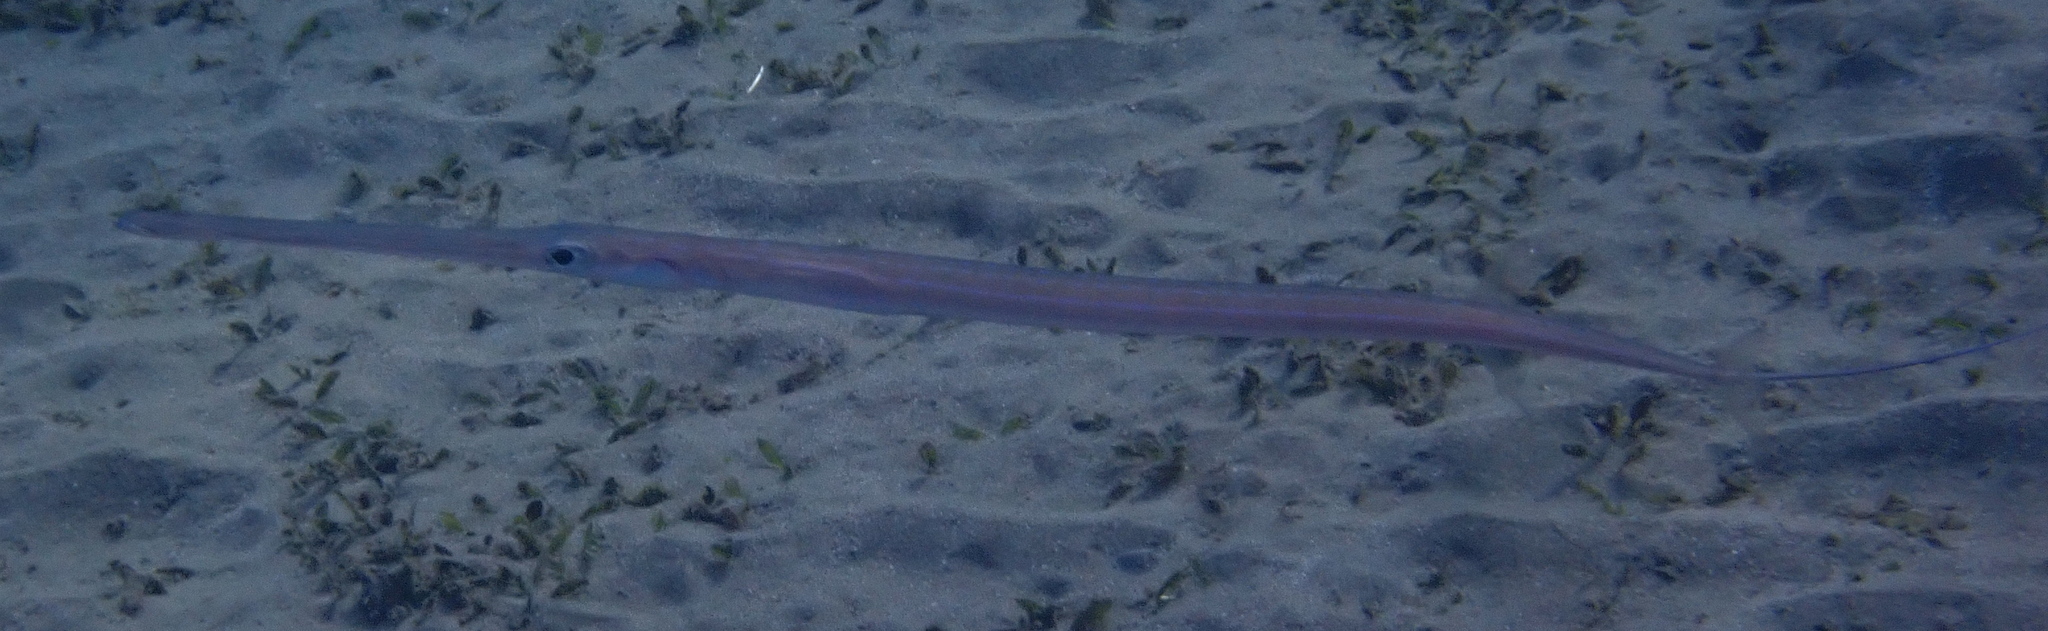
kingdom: Animalia
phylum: Chordata
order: Syngnathiformes
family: Fistulariidae
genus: Fistularia
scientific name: Fistularia commersonii
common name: Bluespotted cornetfish
